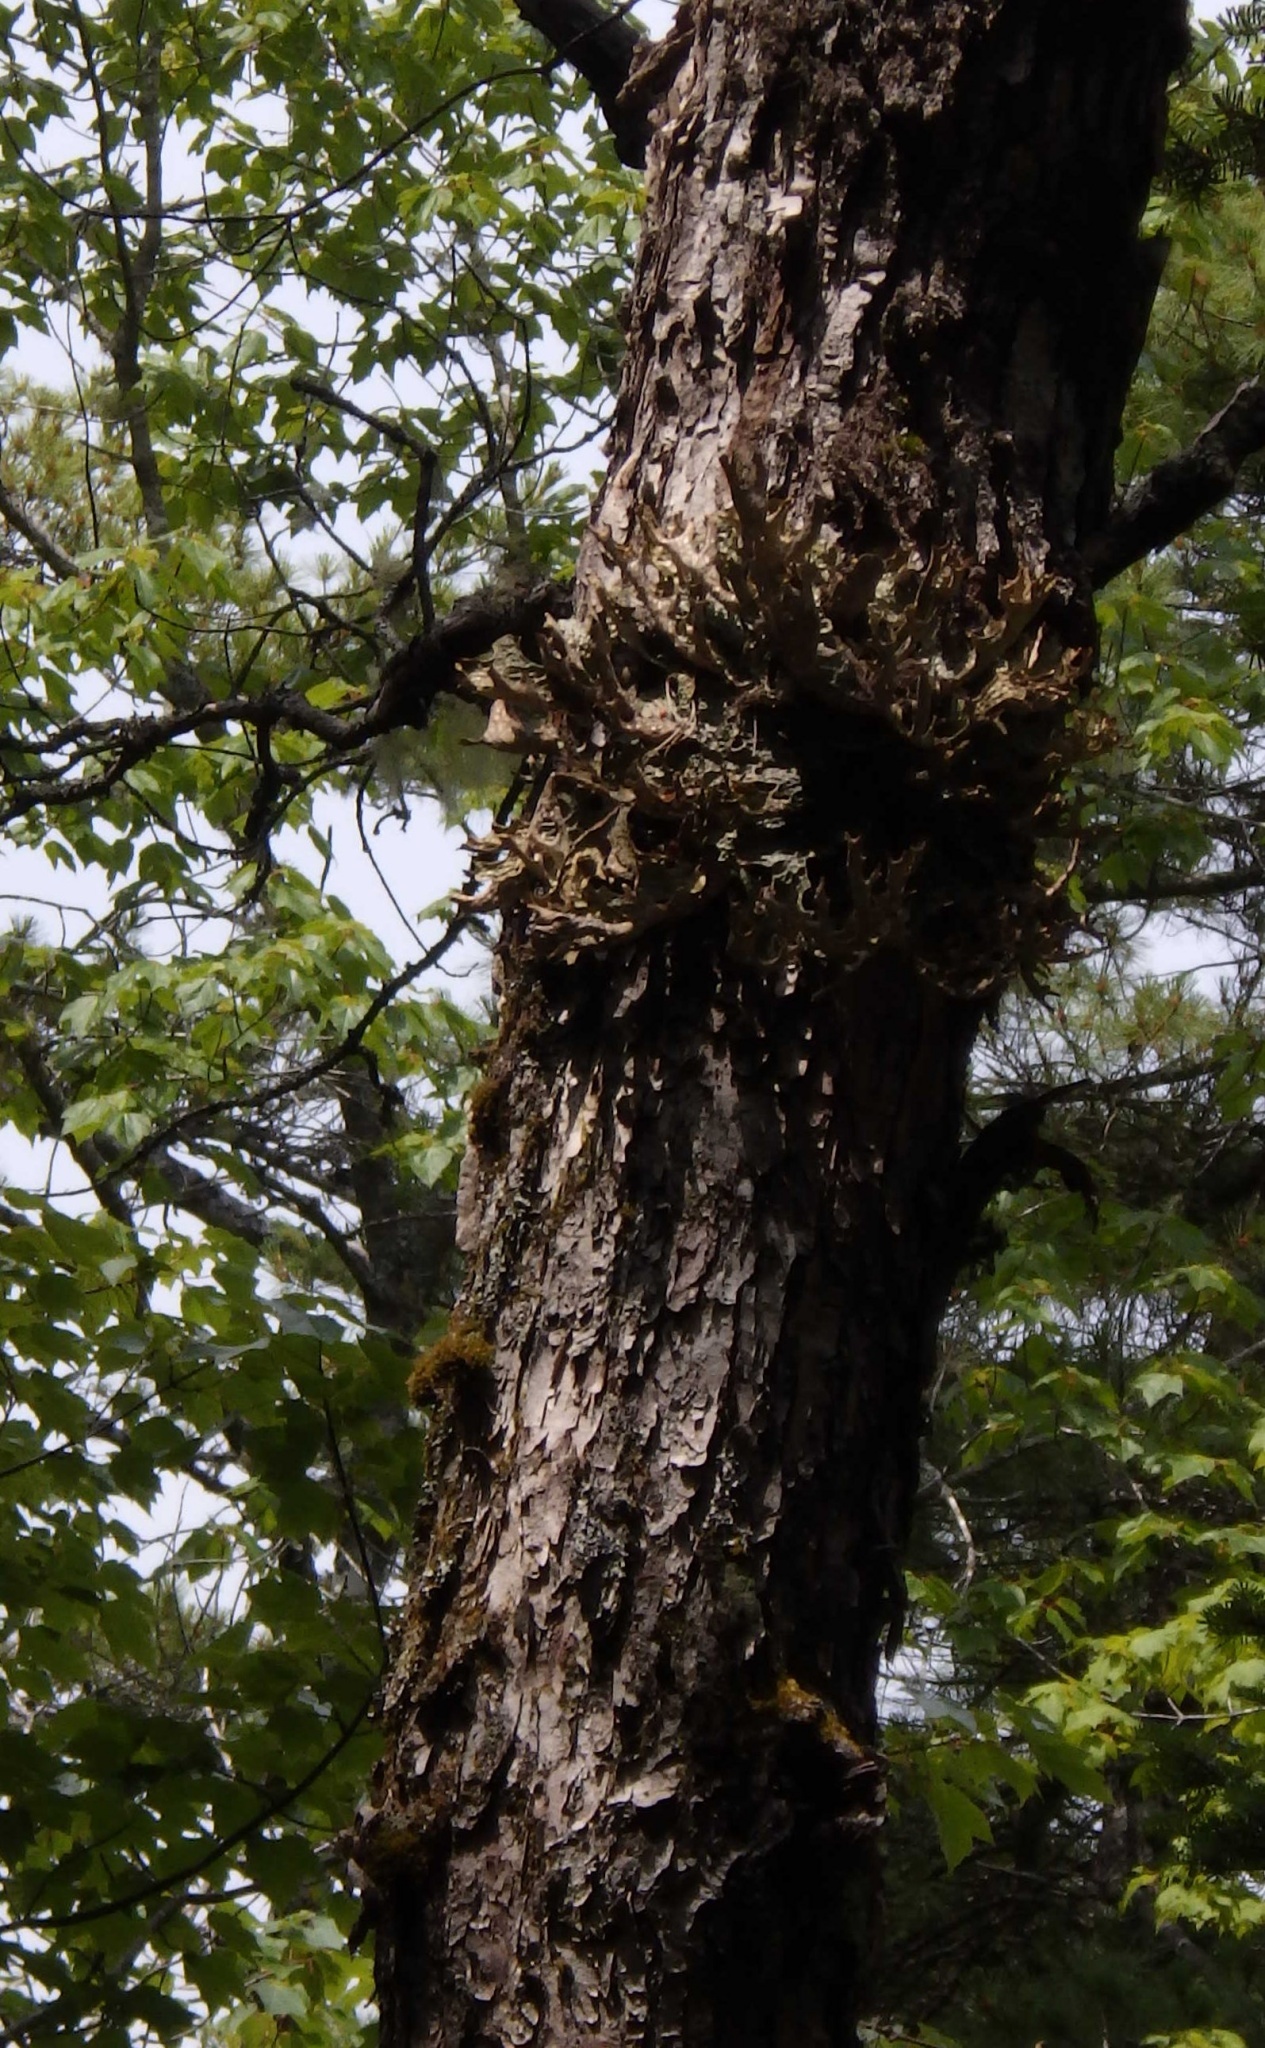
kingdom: Fungi
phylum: Ascomycota
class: Lecanoromycetes
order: Peltigerales
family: Lobariaceae
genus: Lobaria
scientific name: Lobaria pulmonaria
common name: Lungwort
